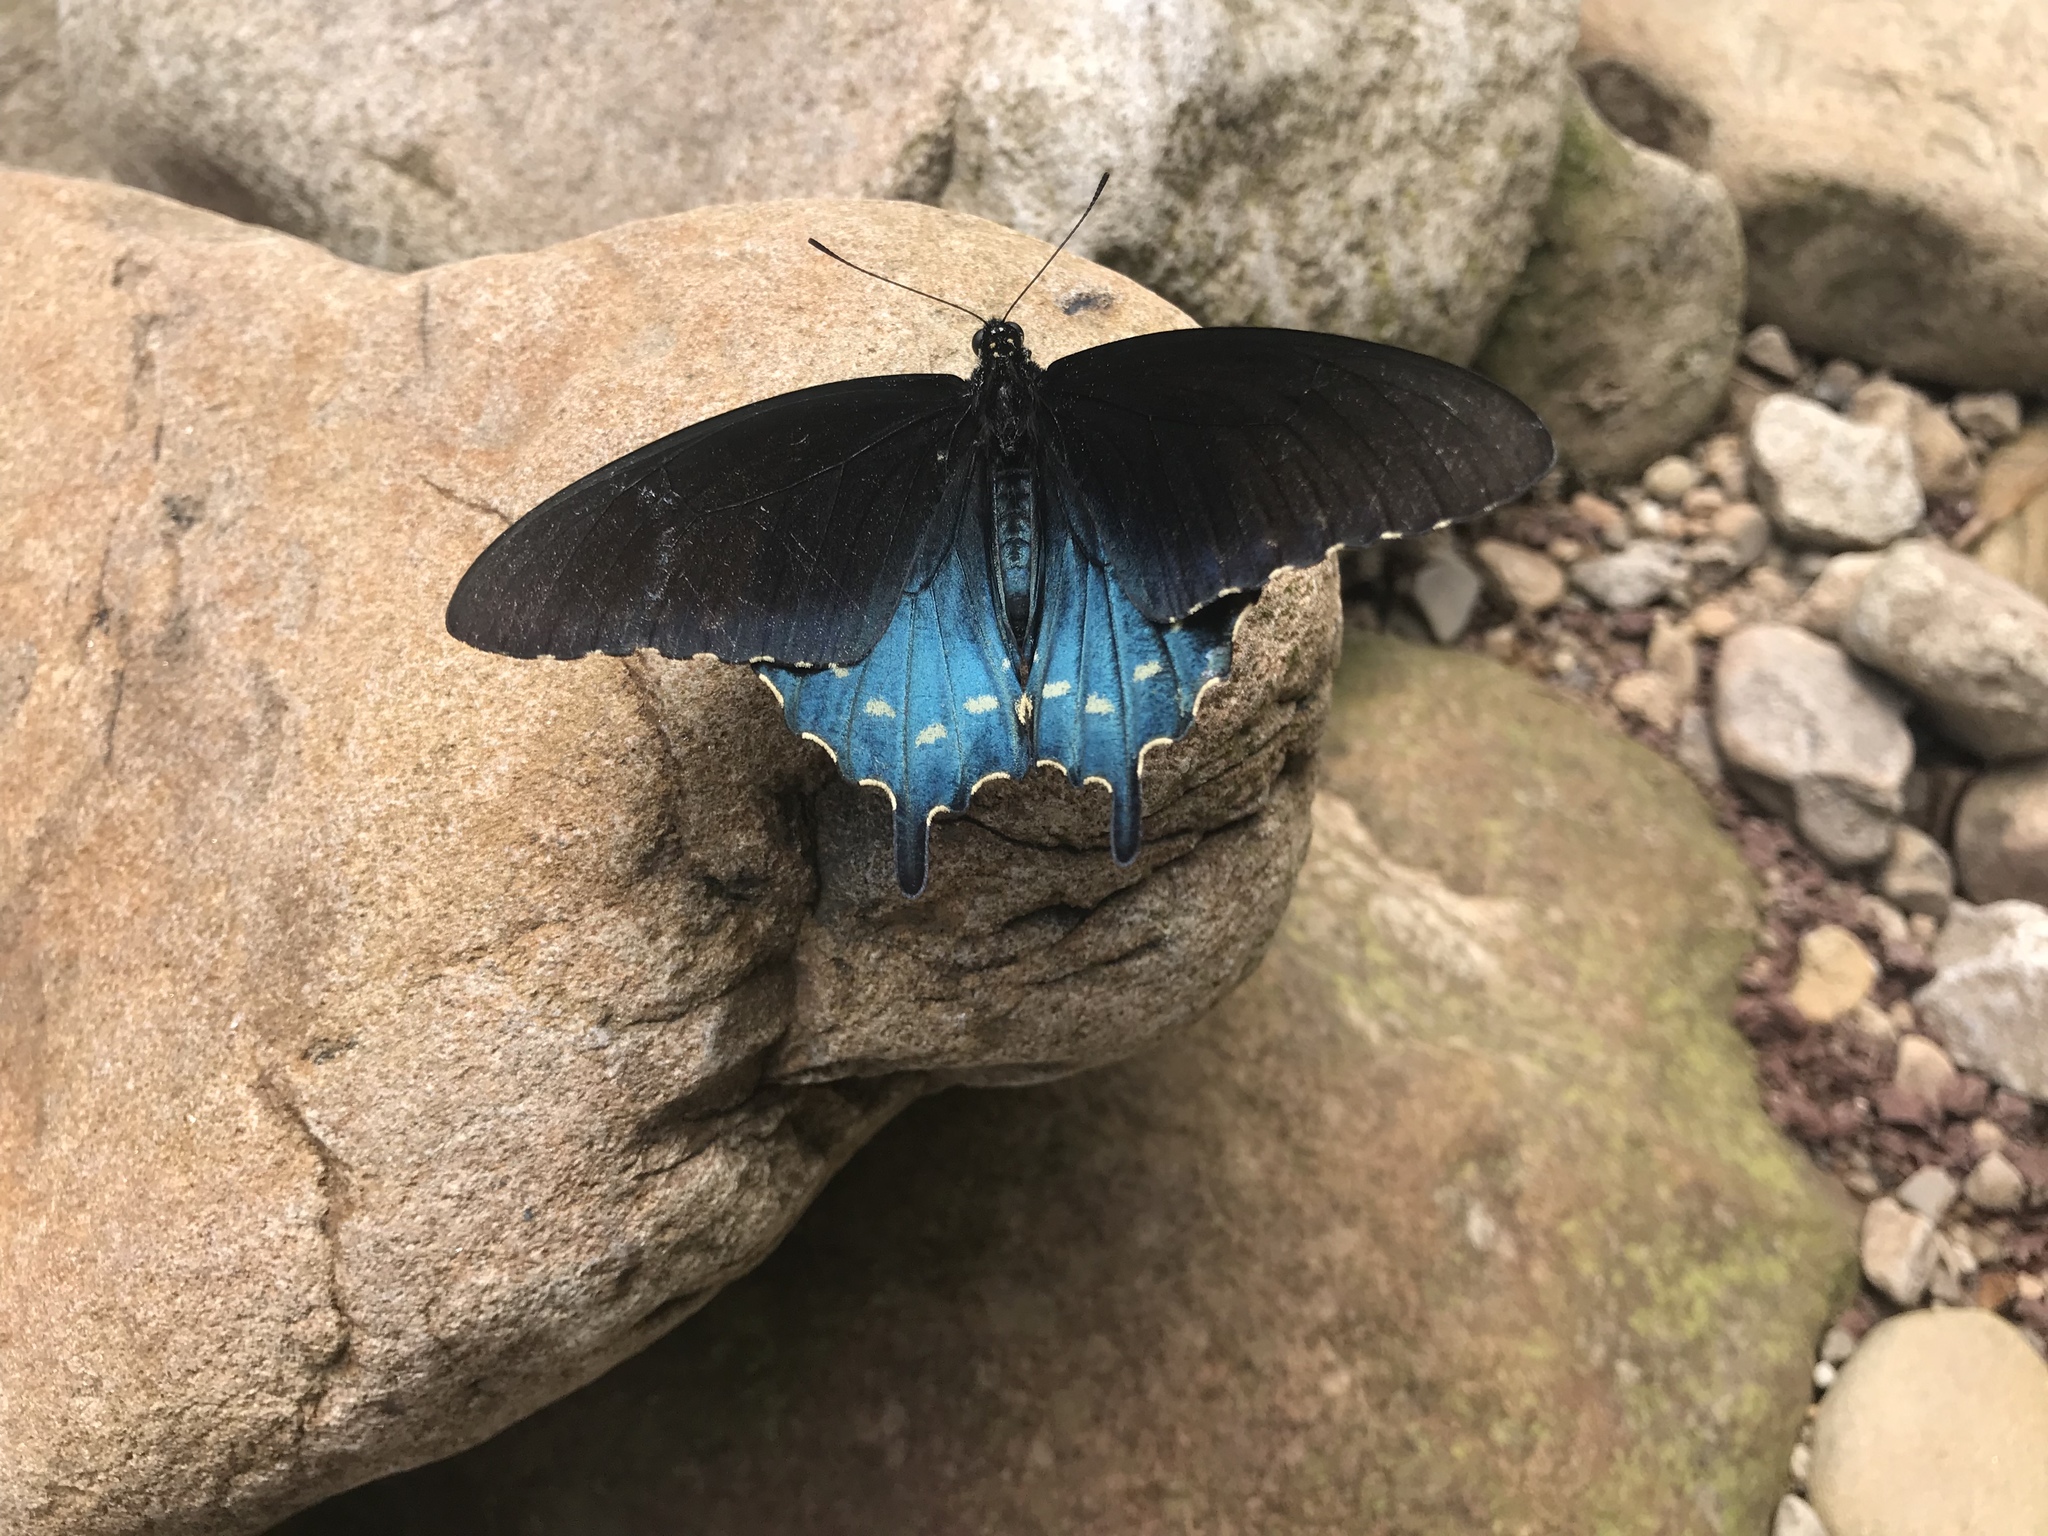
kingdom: Animalia
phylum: Arthropoda
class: Insecta
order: Lepidoptera
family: Papilionidae
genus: Battus
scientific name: Battus philenor
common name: Pipevine swallowtail
